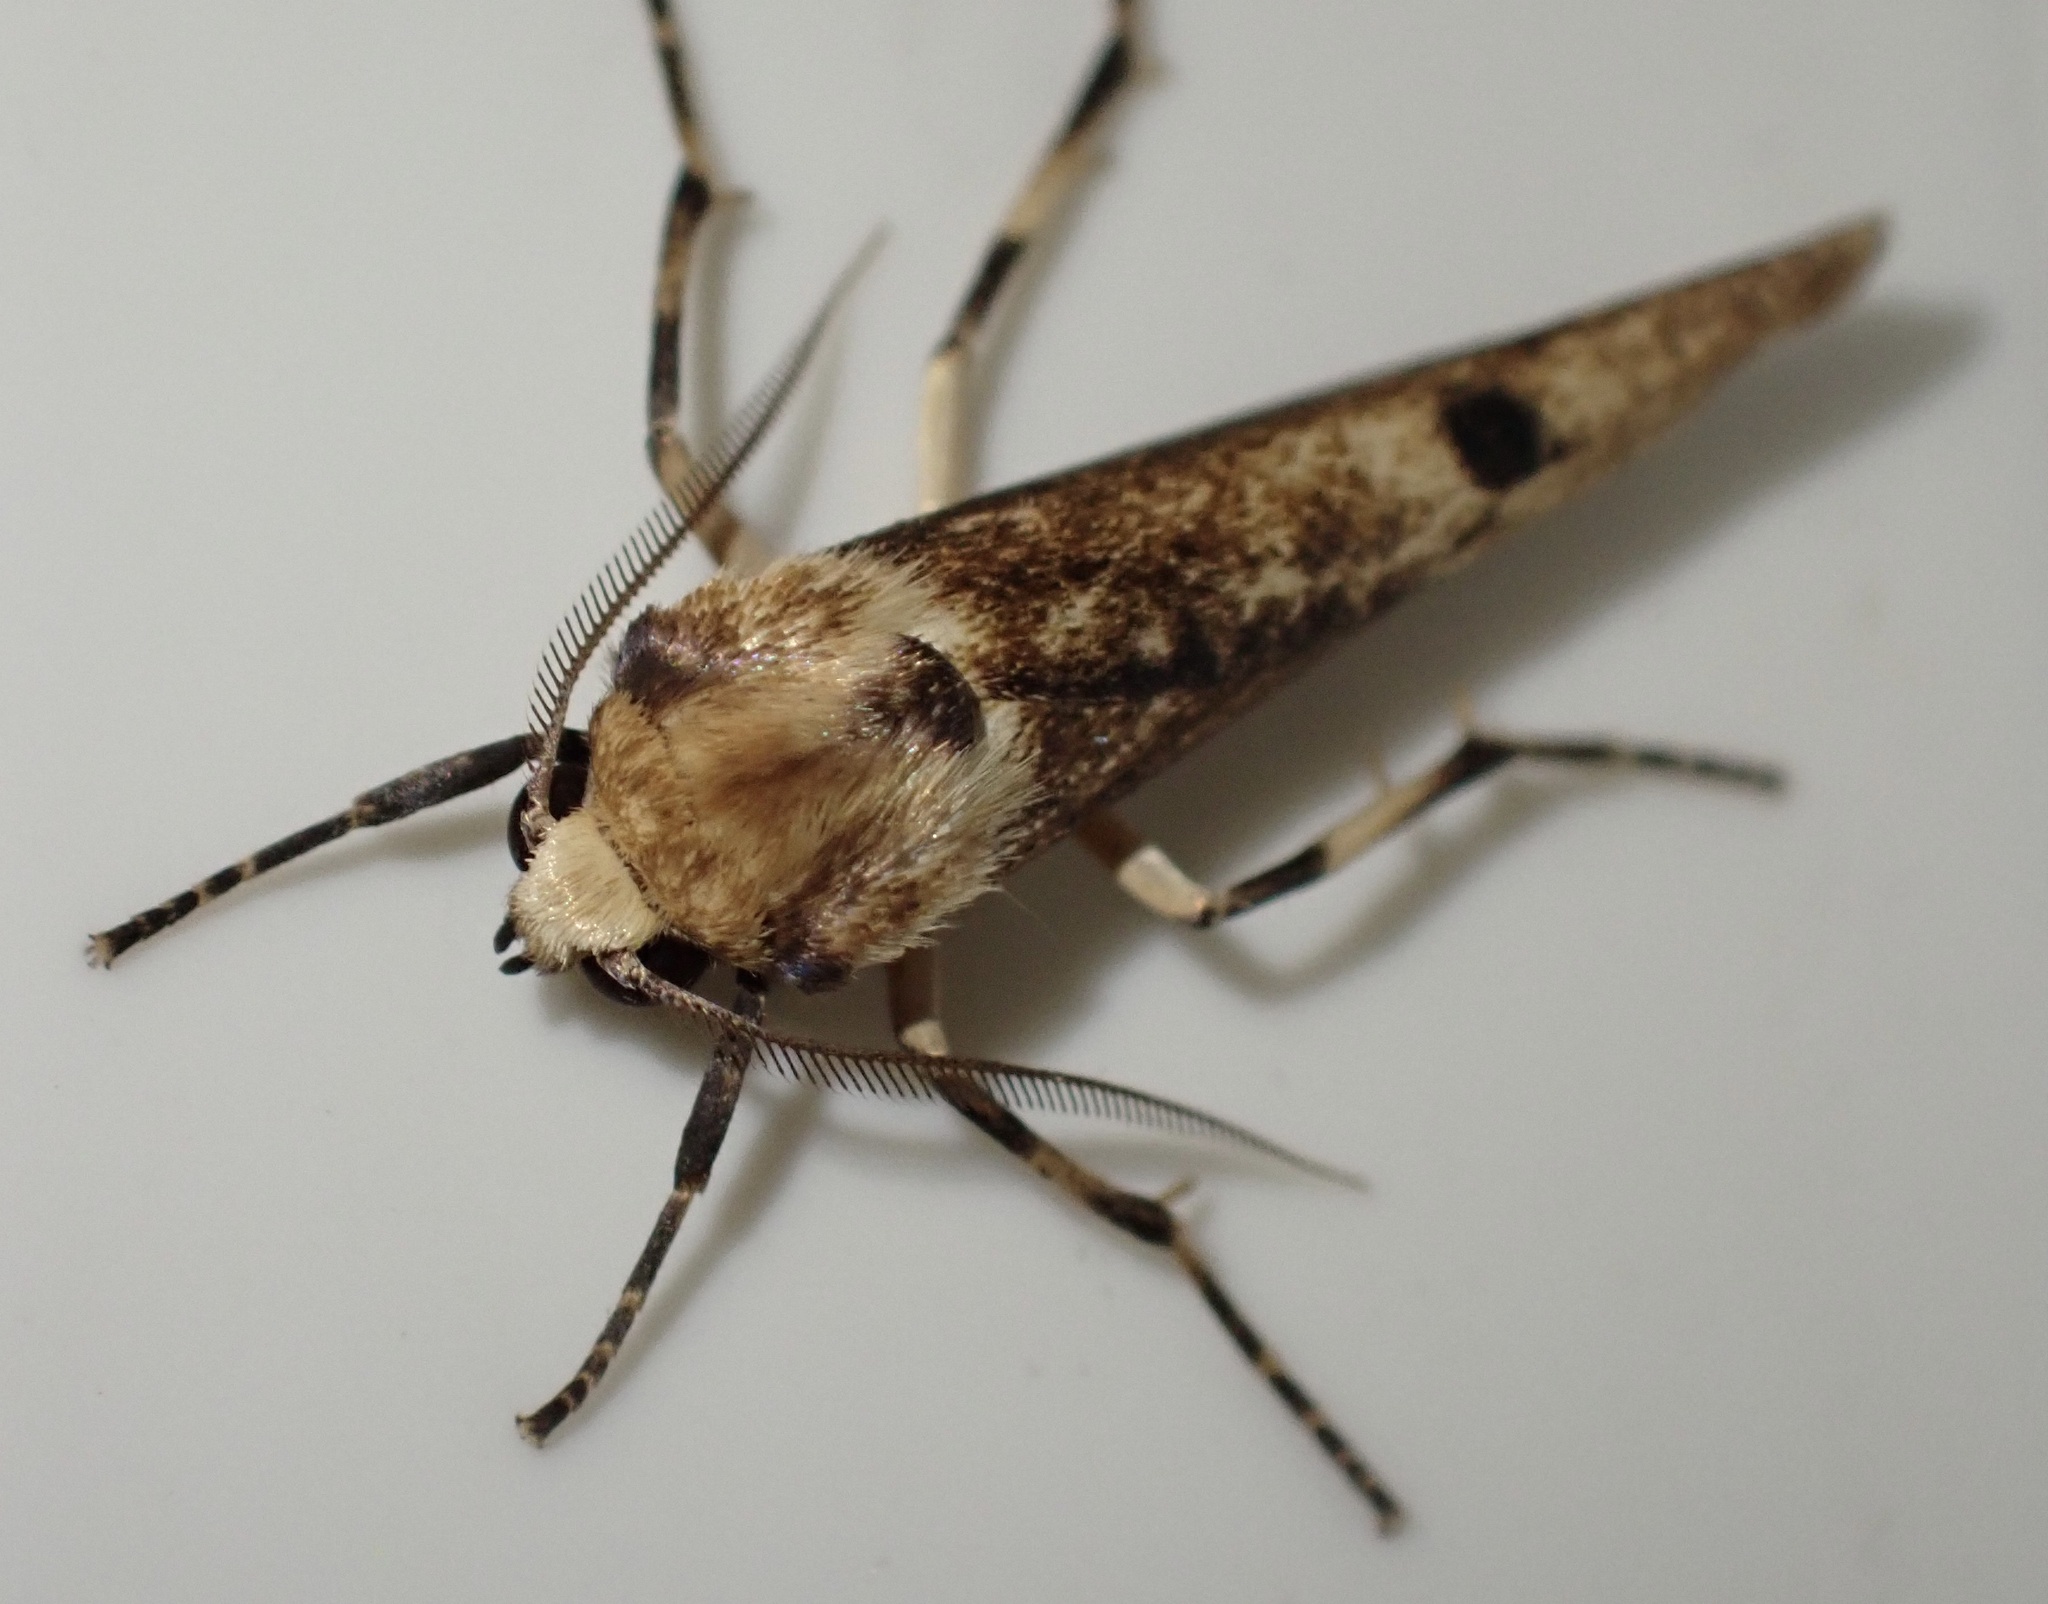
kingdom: Animalia
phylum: Arthropoda
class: Insecta
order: Lepidoptera
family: Erebidae
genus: Oeonosia
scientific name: Oeonosia
